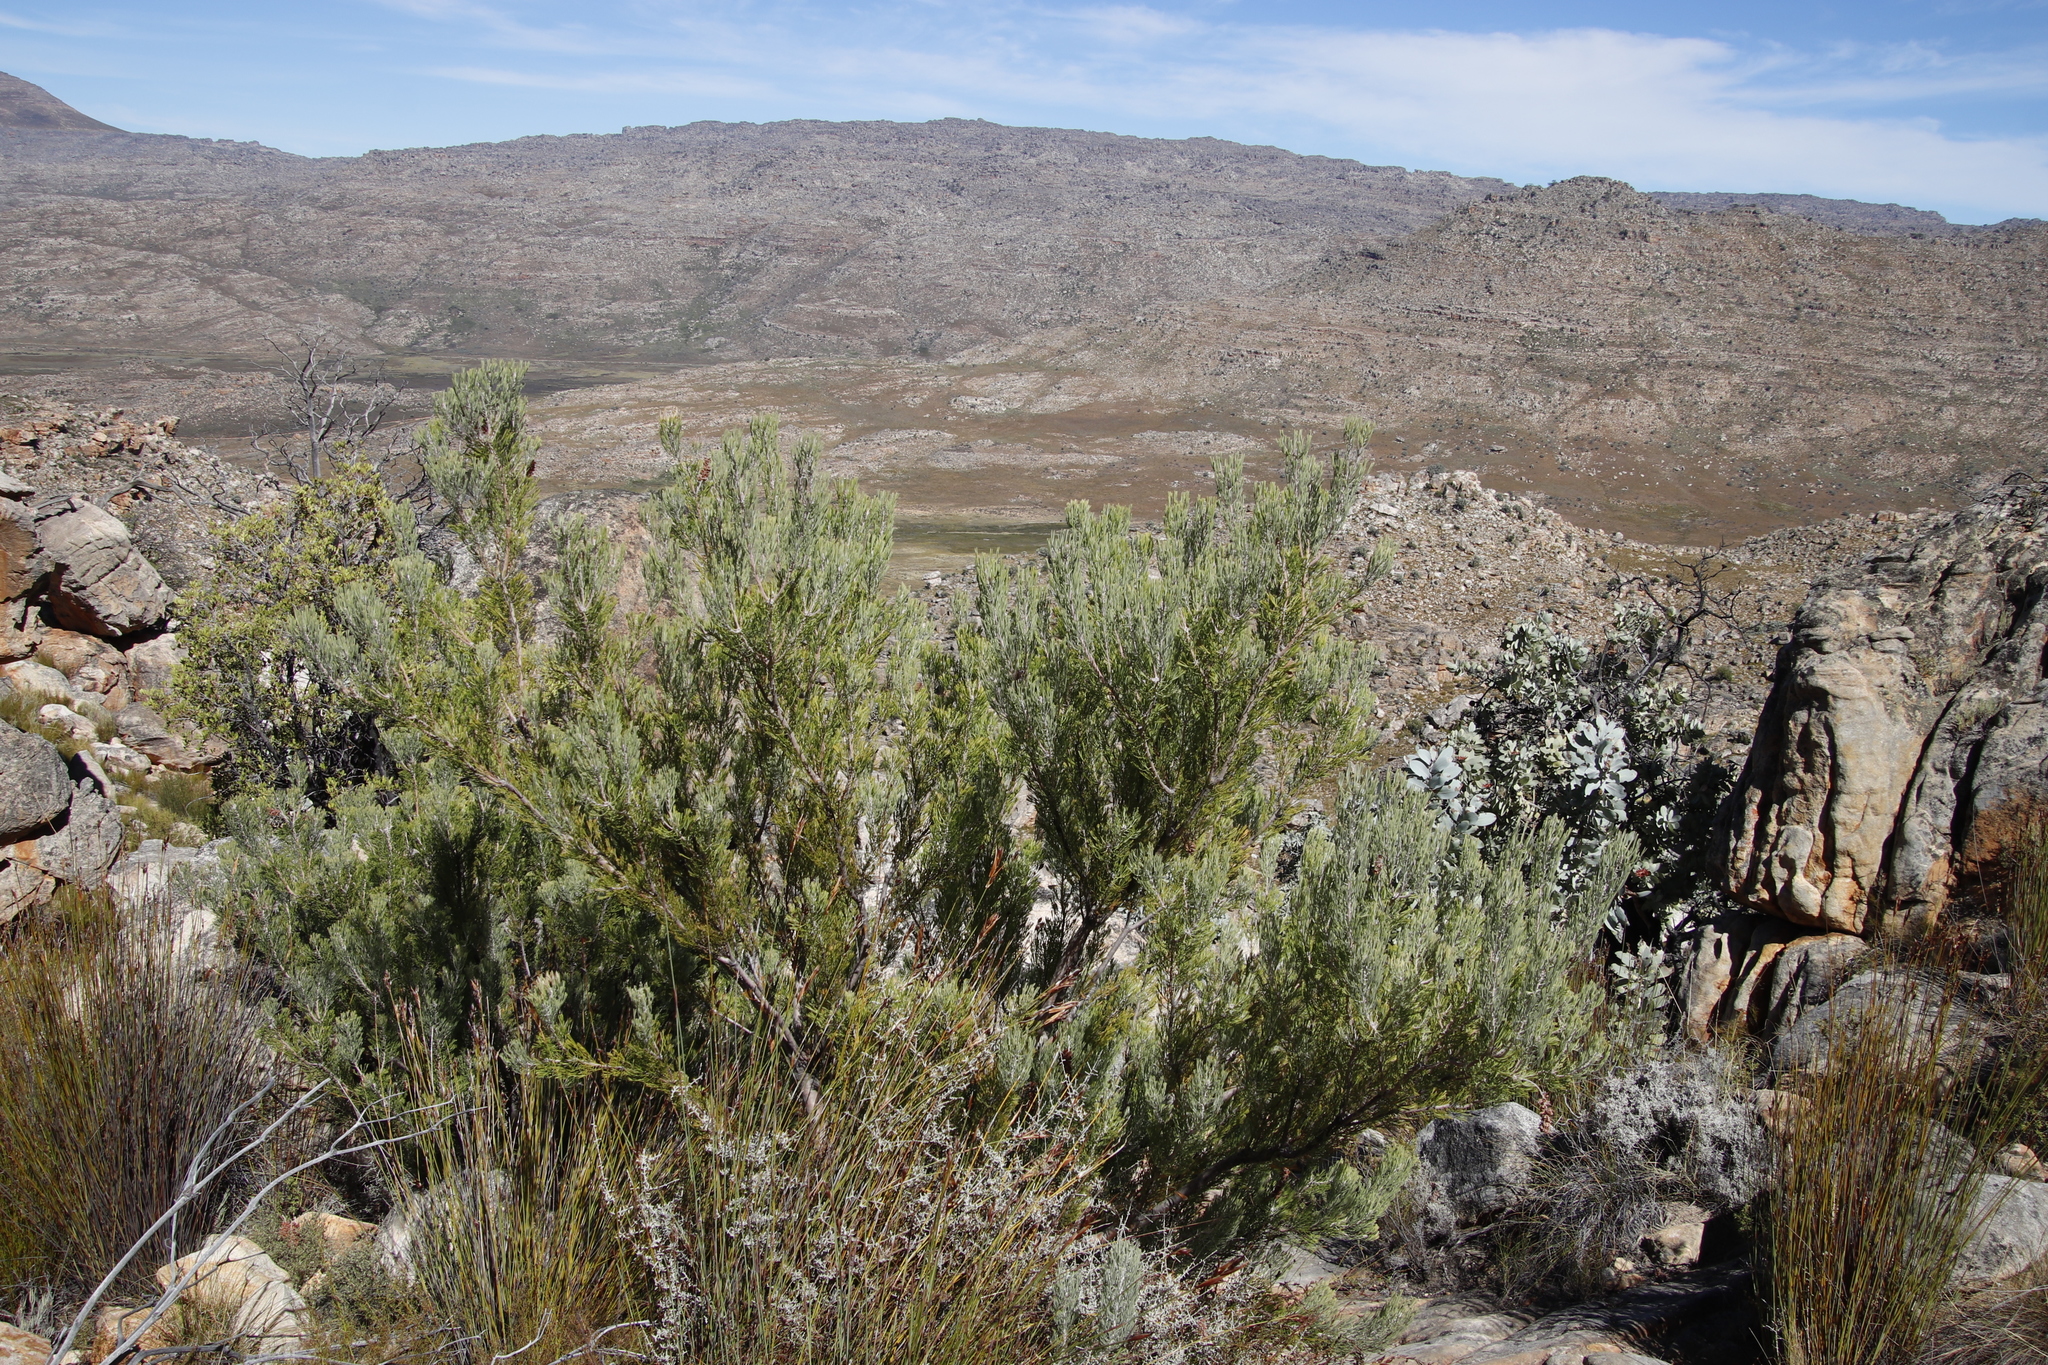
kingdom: Plantae
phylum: Tracheophyta
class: Magnoliopsida
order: Proteales
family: Proteaceae
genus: Paranomus
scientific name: Paranomus bracteolaris
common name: Bokkeveld tree sceptre
